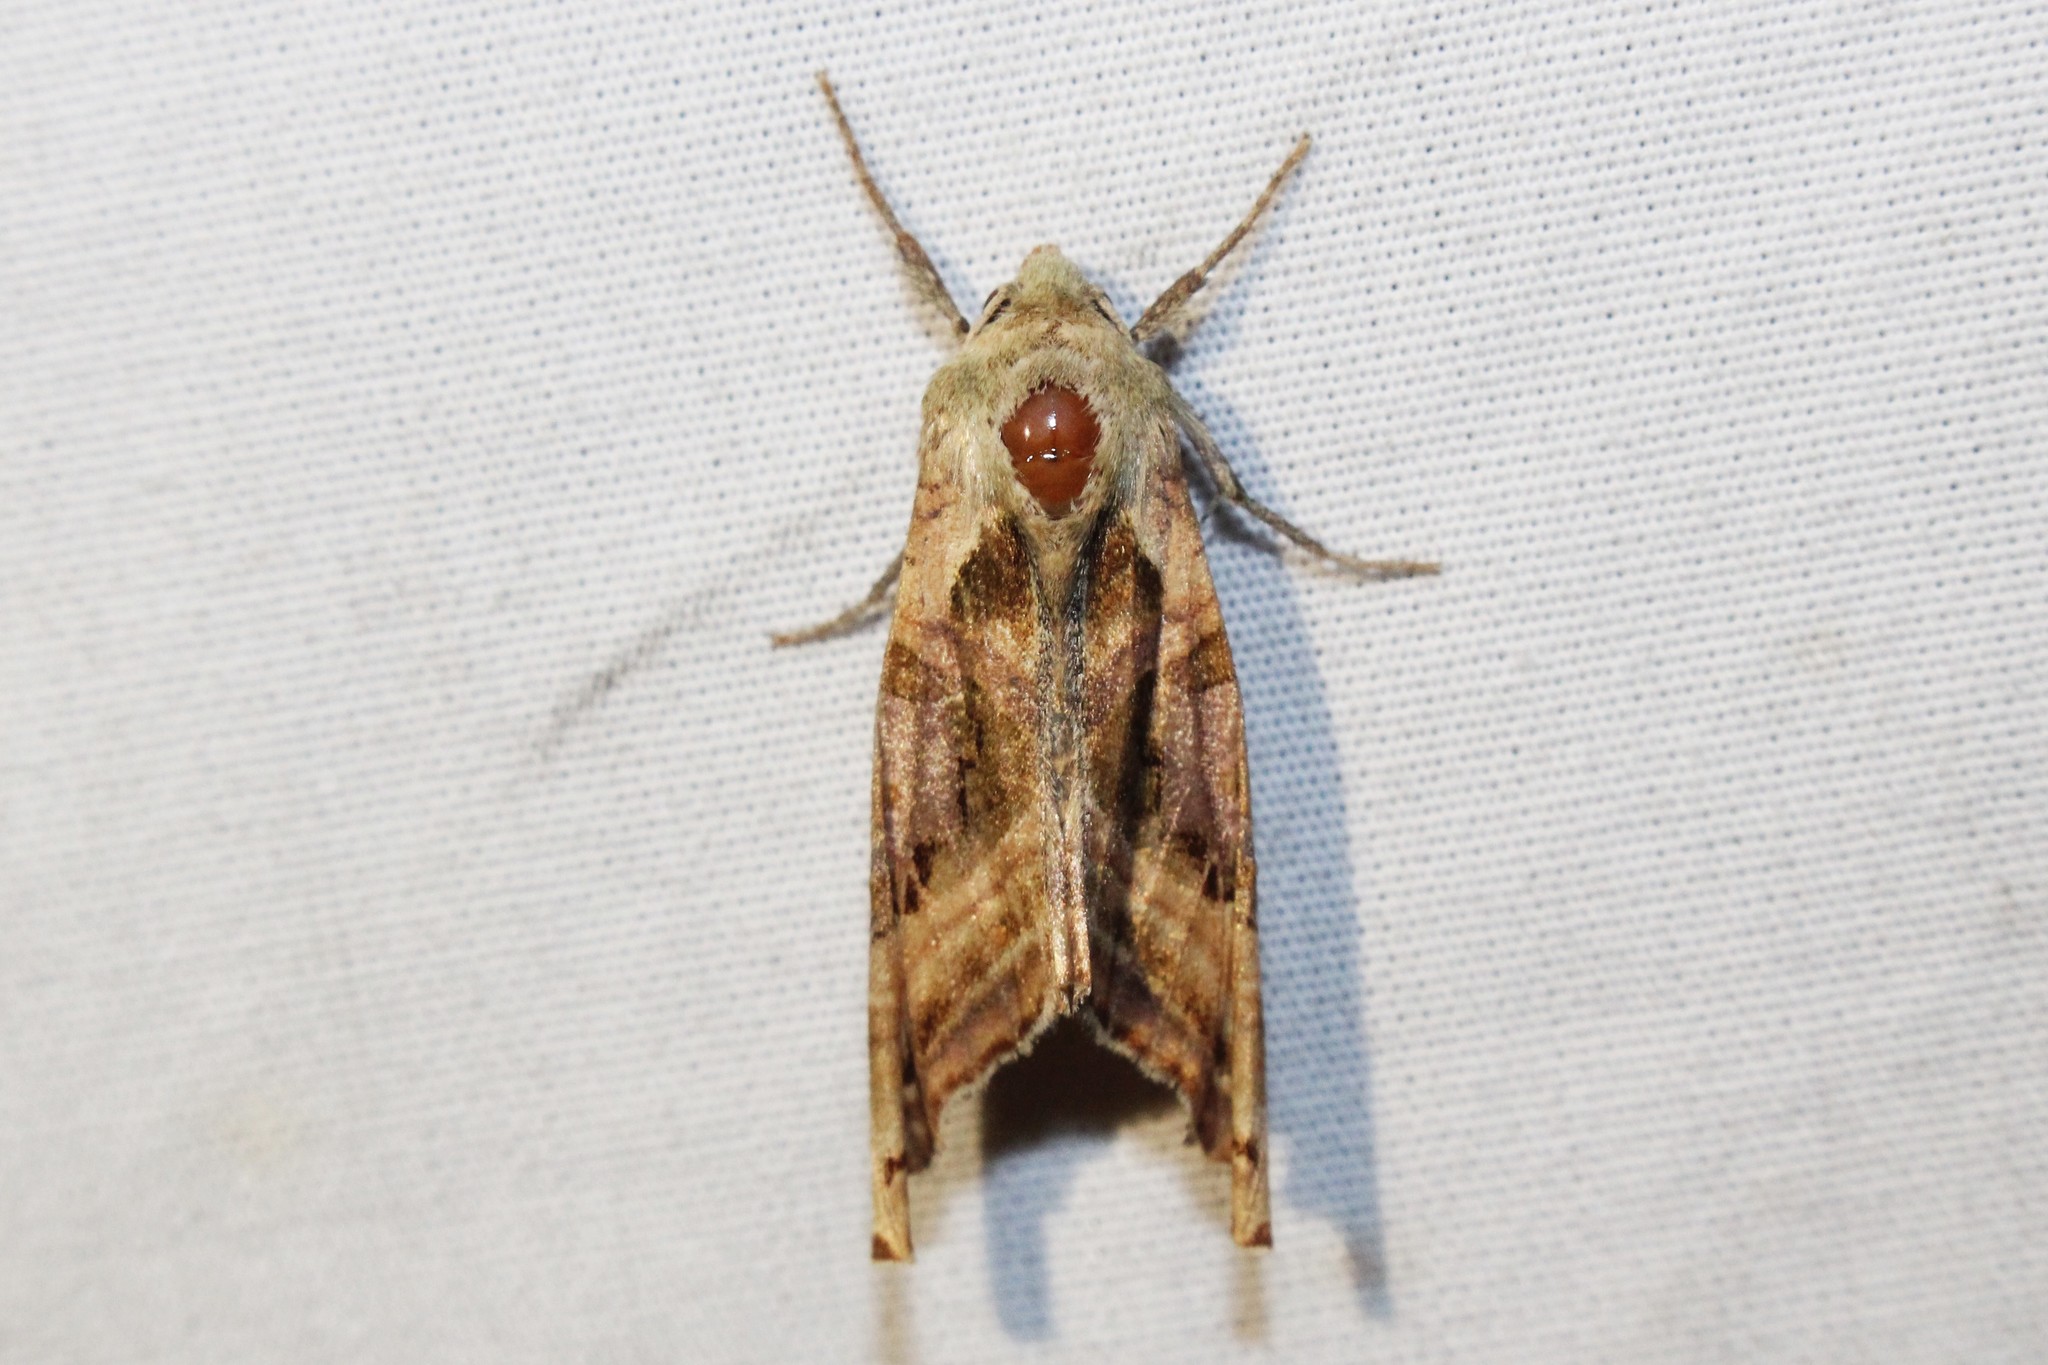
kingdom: Animalia
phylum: Arthropoda
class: Insecta
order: Lepidoptera
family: Noctuidae
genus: Phlogophora
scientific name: Phlogophora iris
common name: Olive angle shades
